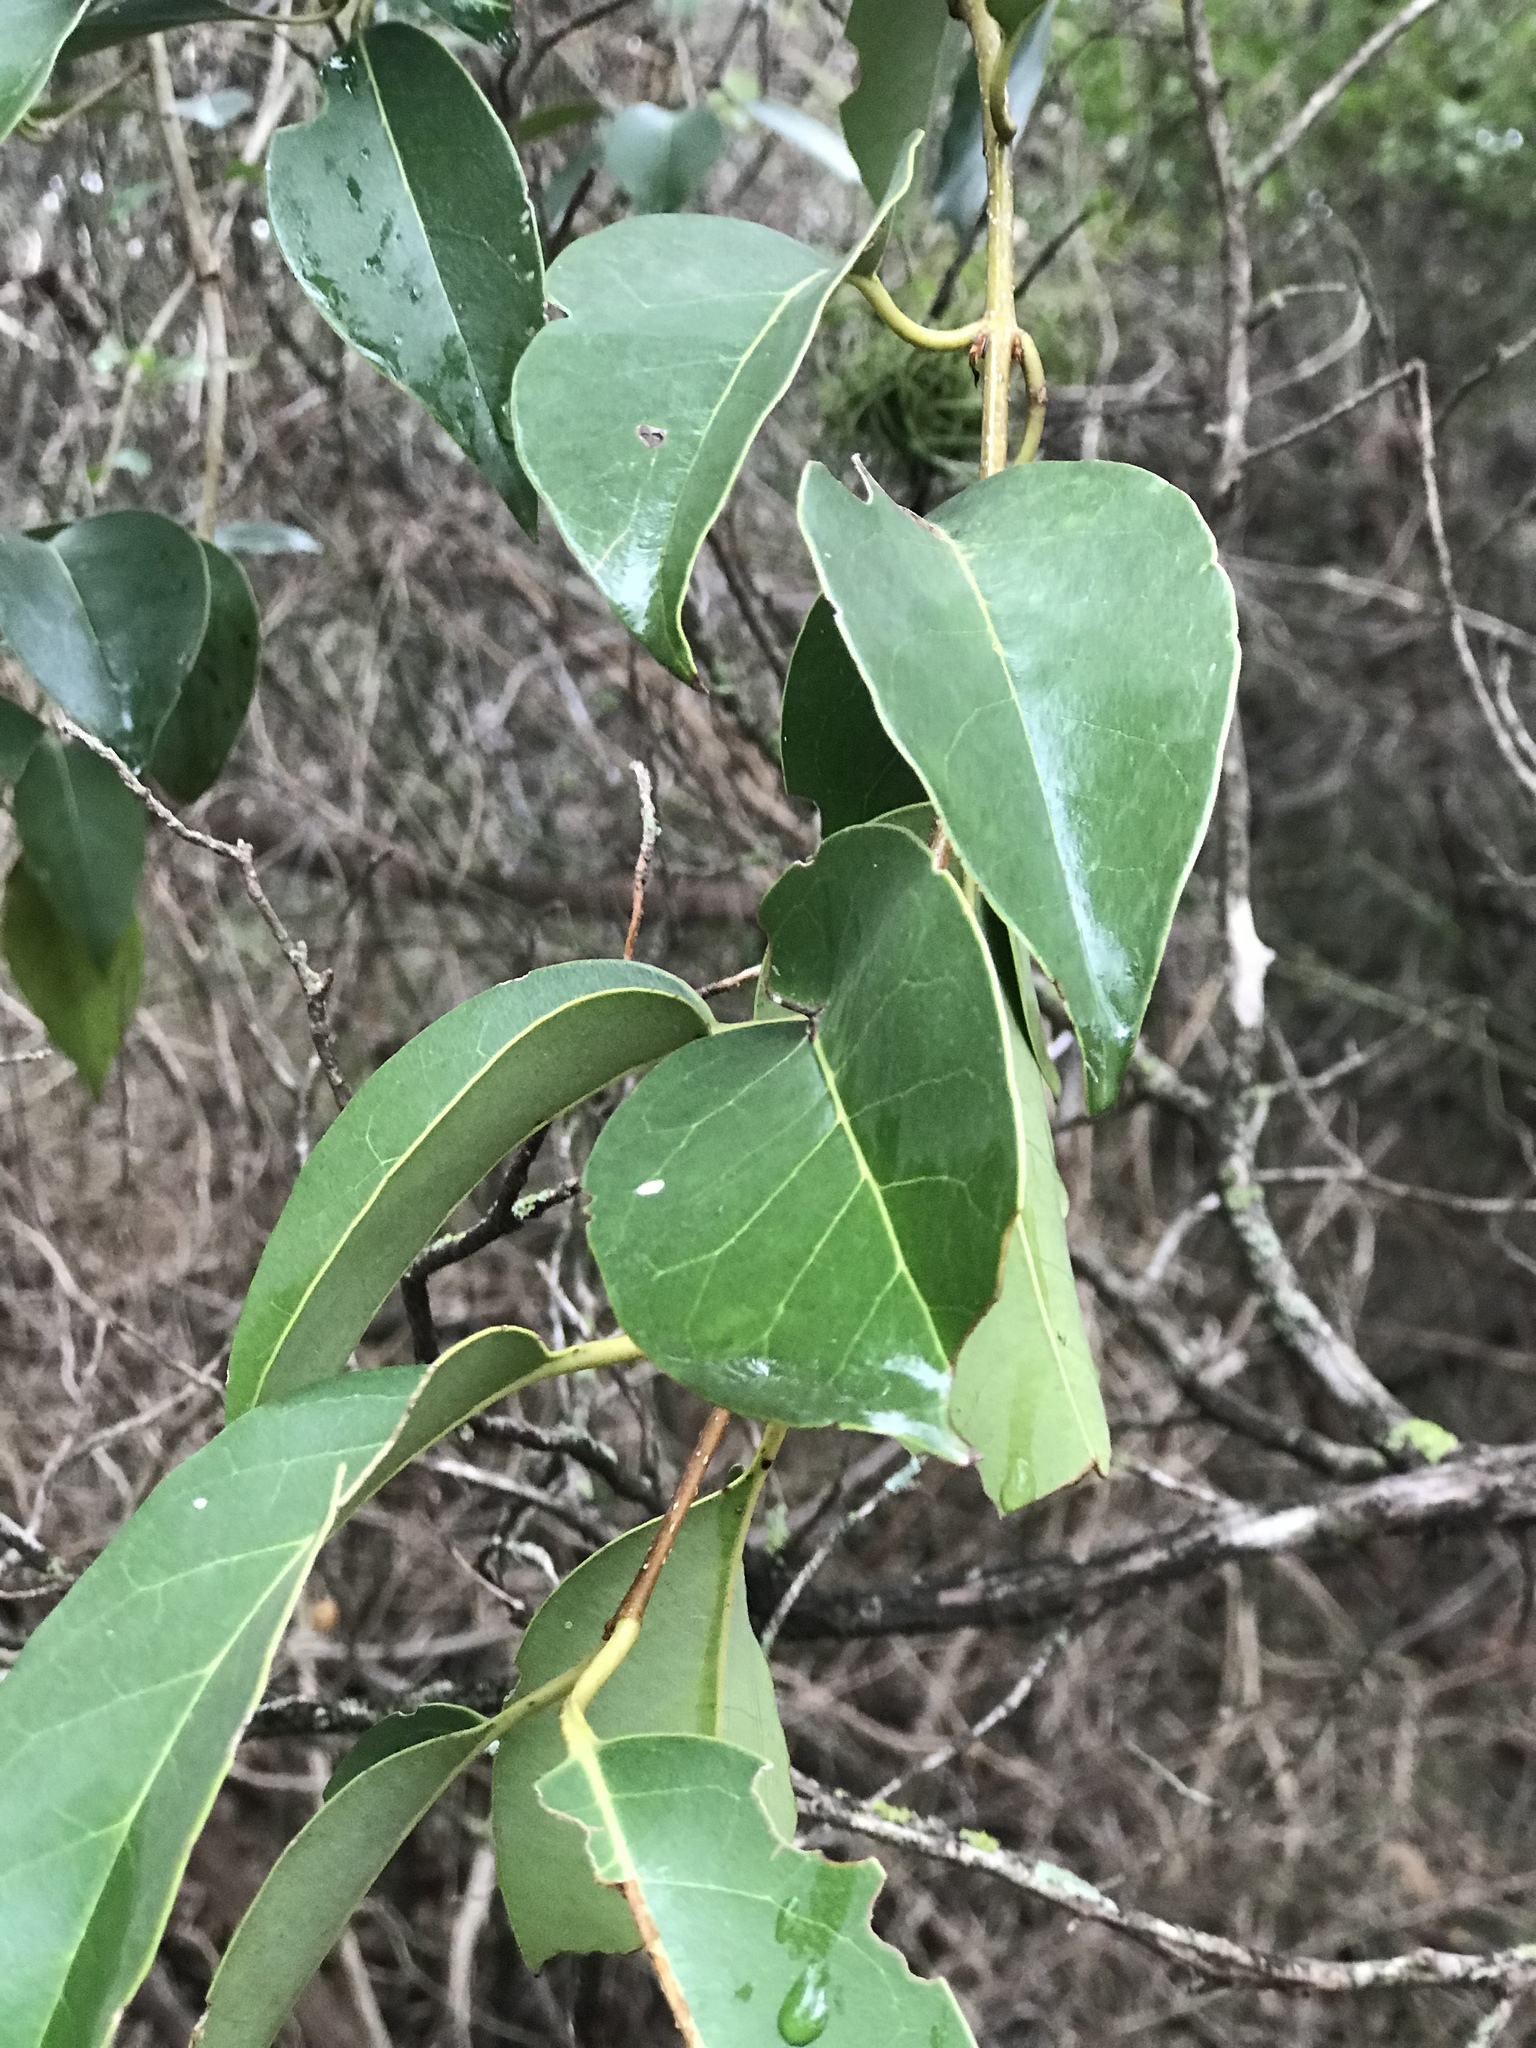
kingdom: Plantae
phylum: Tracheophyta
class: Magnoliopsida
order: Lamiales
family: Oleaceae
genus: Ligustrum
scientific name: Ligustrum lucidum
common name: Glossy privet
